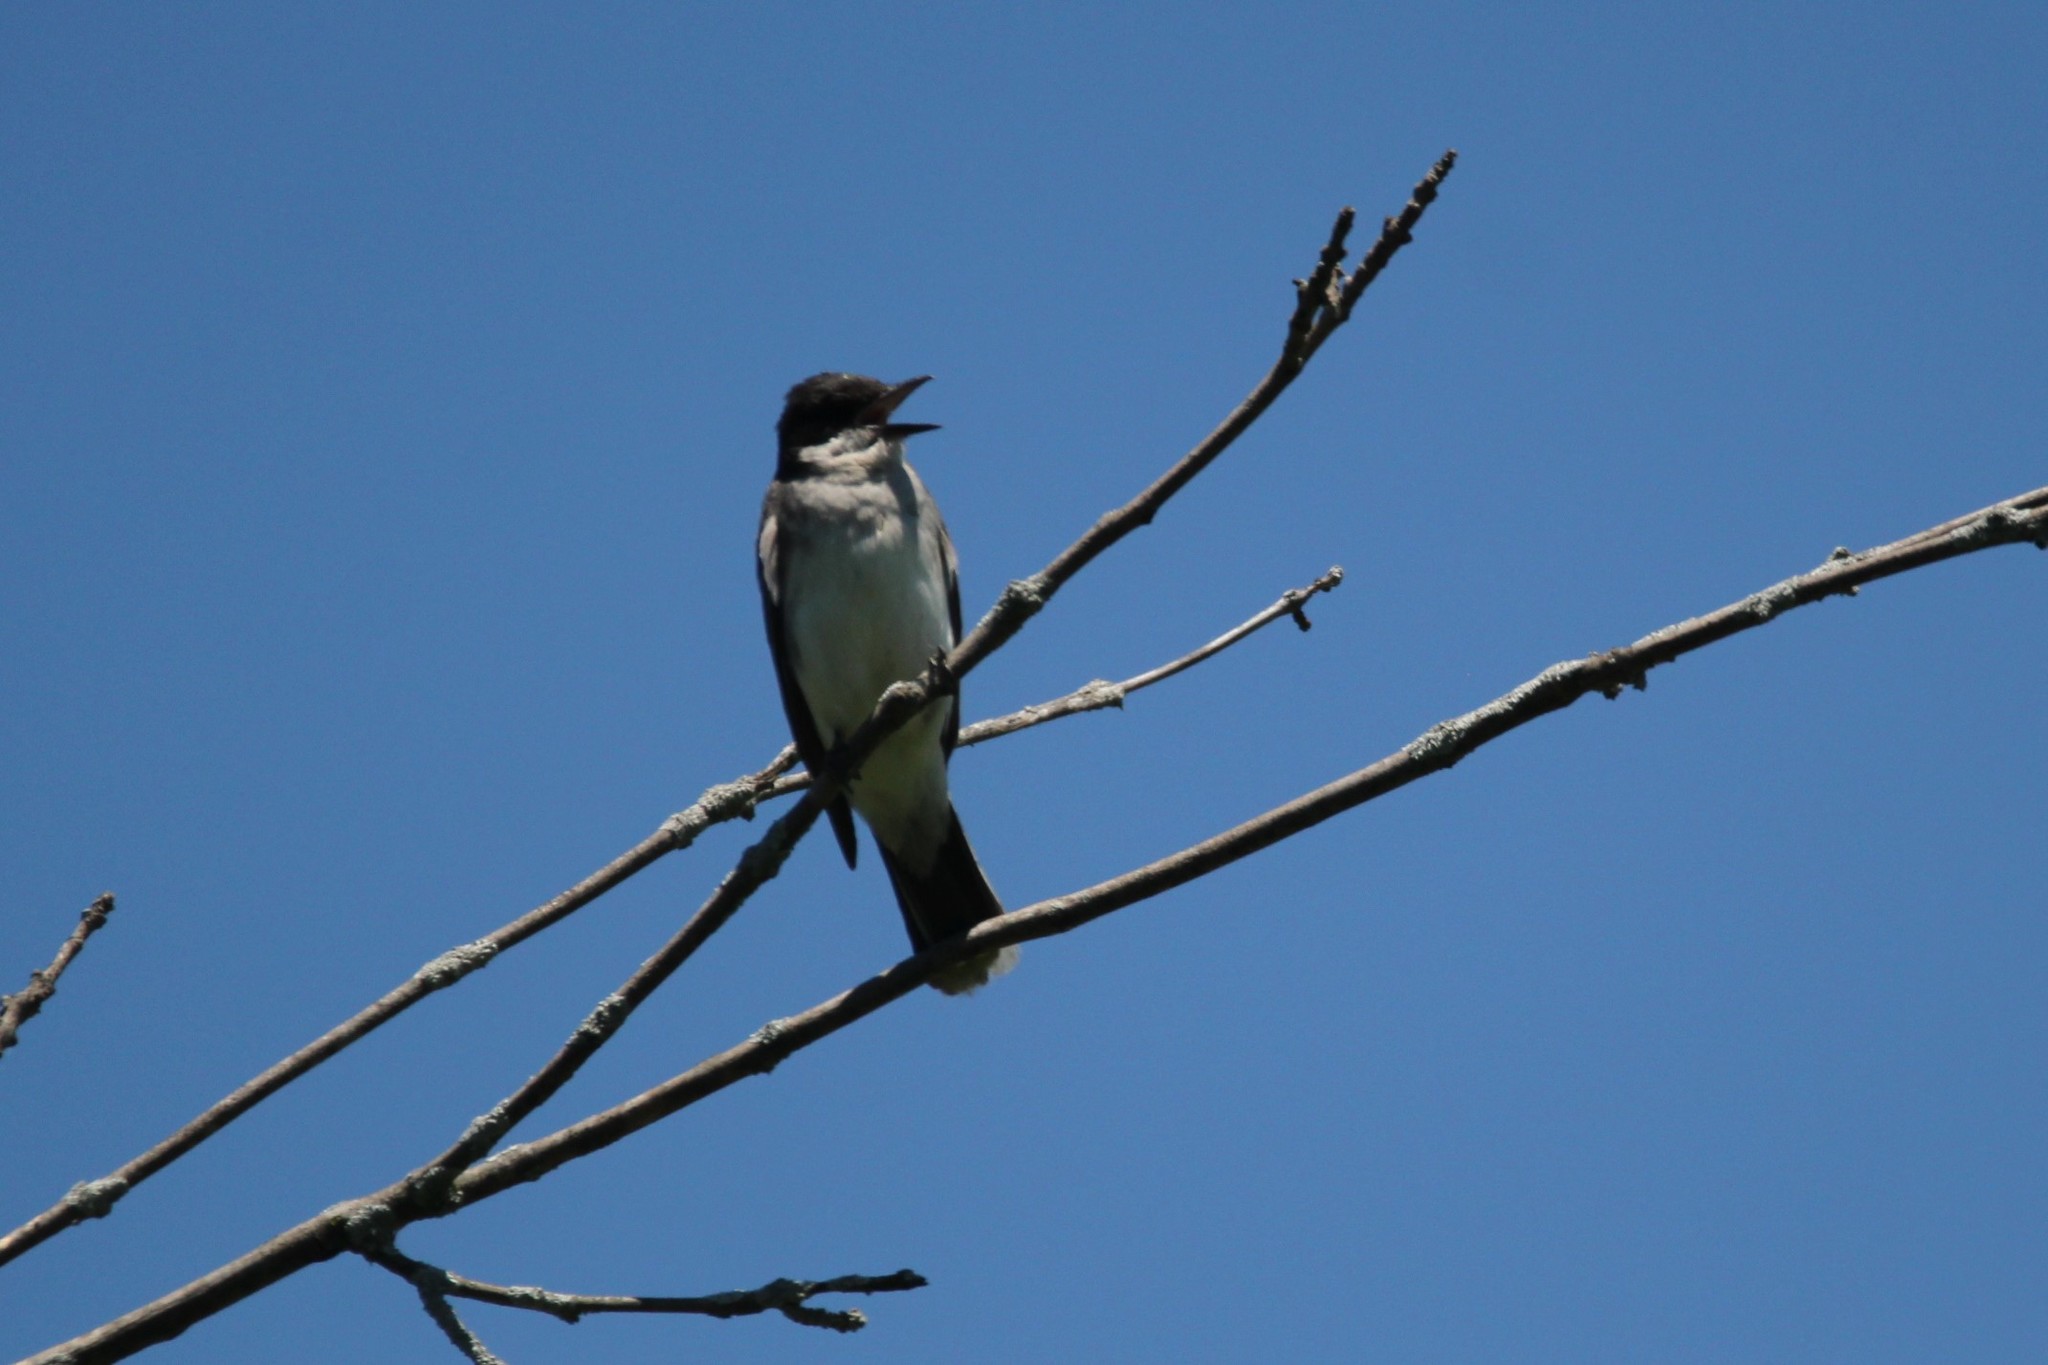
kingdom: Animalia
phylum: Chordata
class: Aves
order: Passeriformes
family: Tyrannidae
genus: Tyrannus
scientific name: Tyrannus tyrannus
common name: Eastern kingbird
